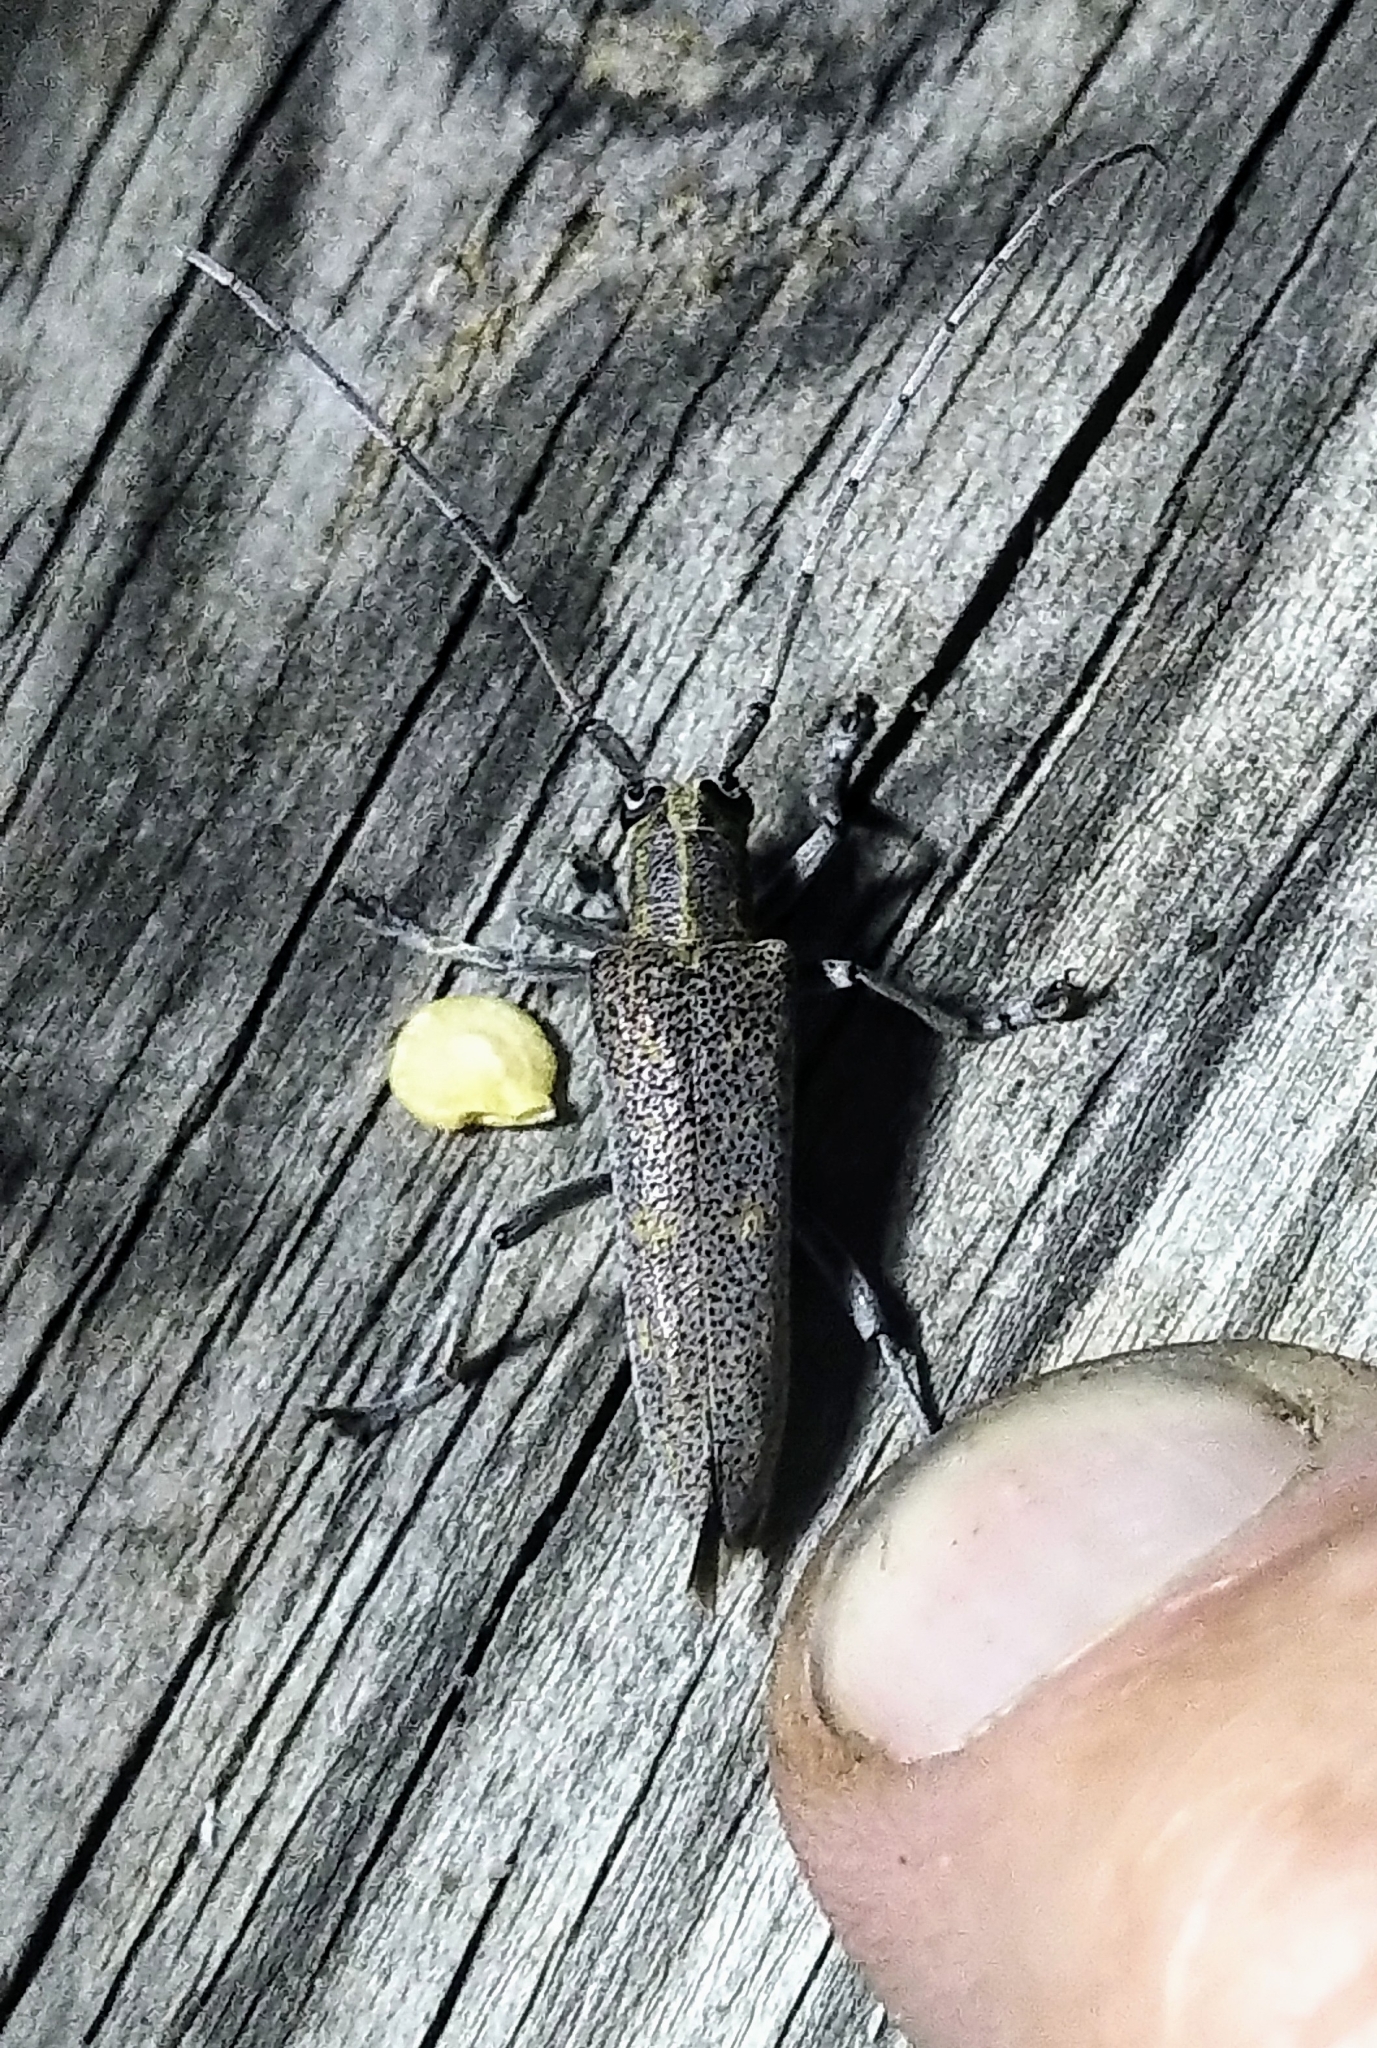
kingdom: Animalia
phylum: Arthropoda
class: Insecta
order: Coleoptera
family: Cerambycidae
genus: Saperda
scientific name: Saperda calcarata
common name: Poplar borer
